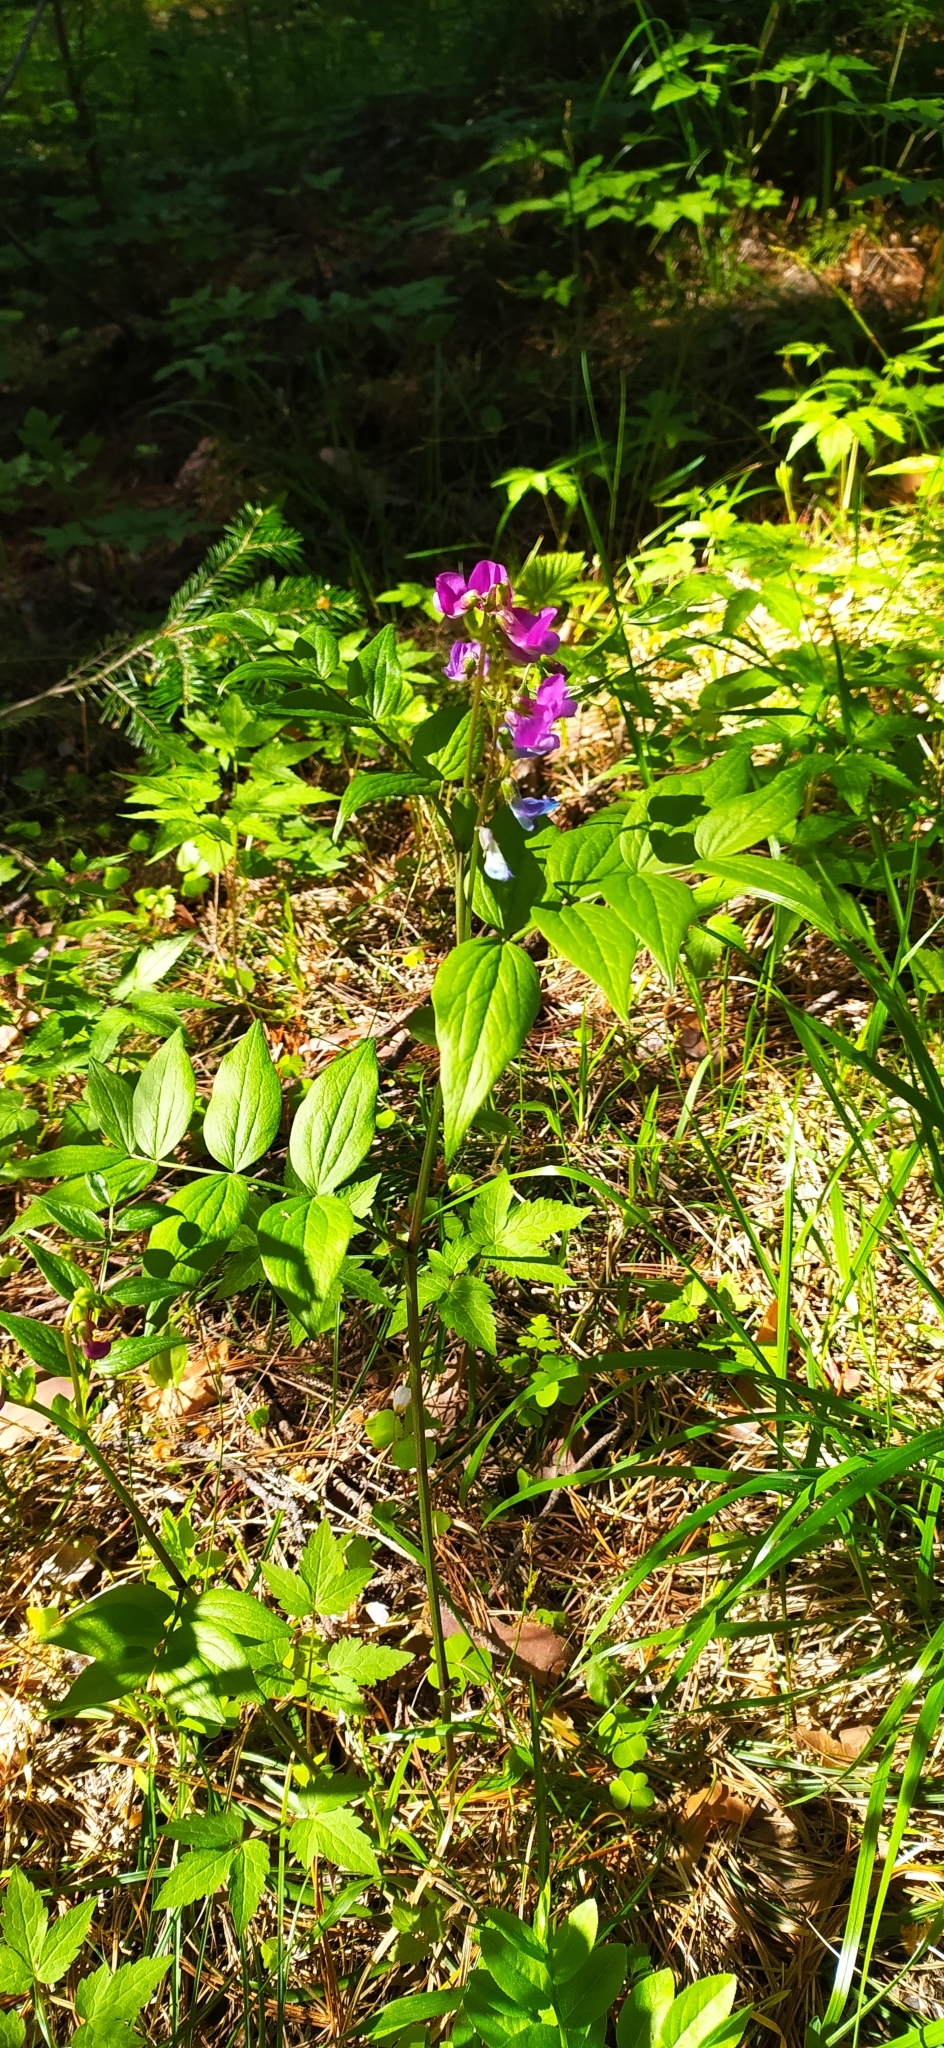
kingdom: Plantae
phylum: Tracheophyta
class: Magnoliopsida
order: Fabales
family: Fabaceae
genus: Lathyrus
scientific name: Lathyrus vernus
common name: Spring pea
